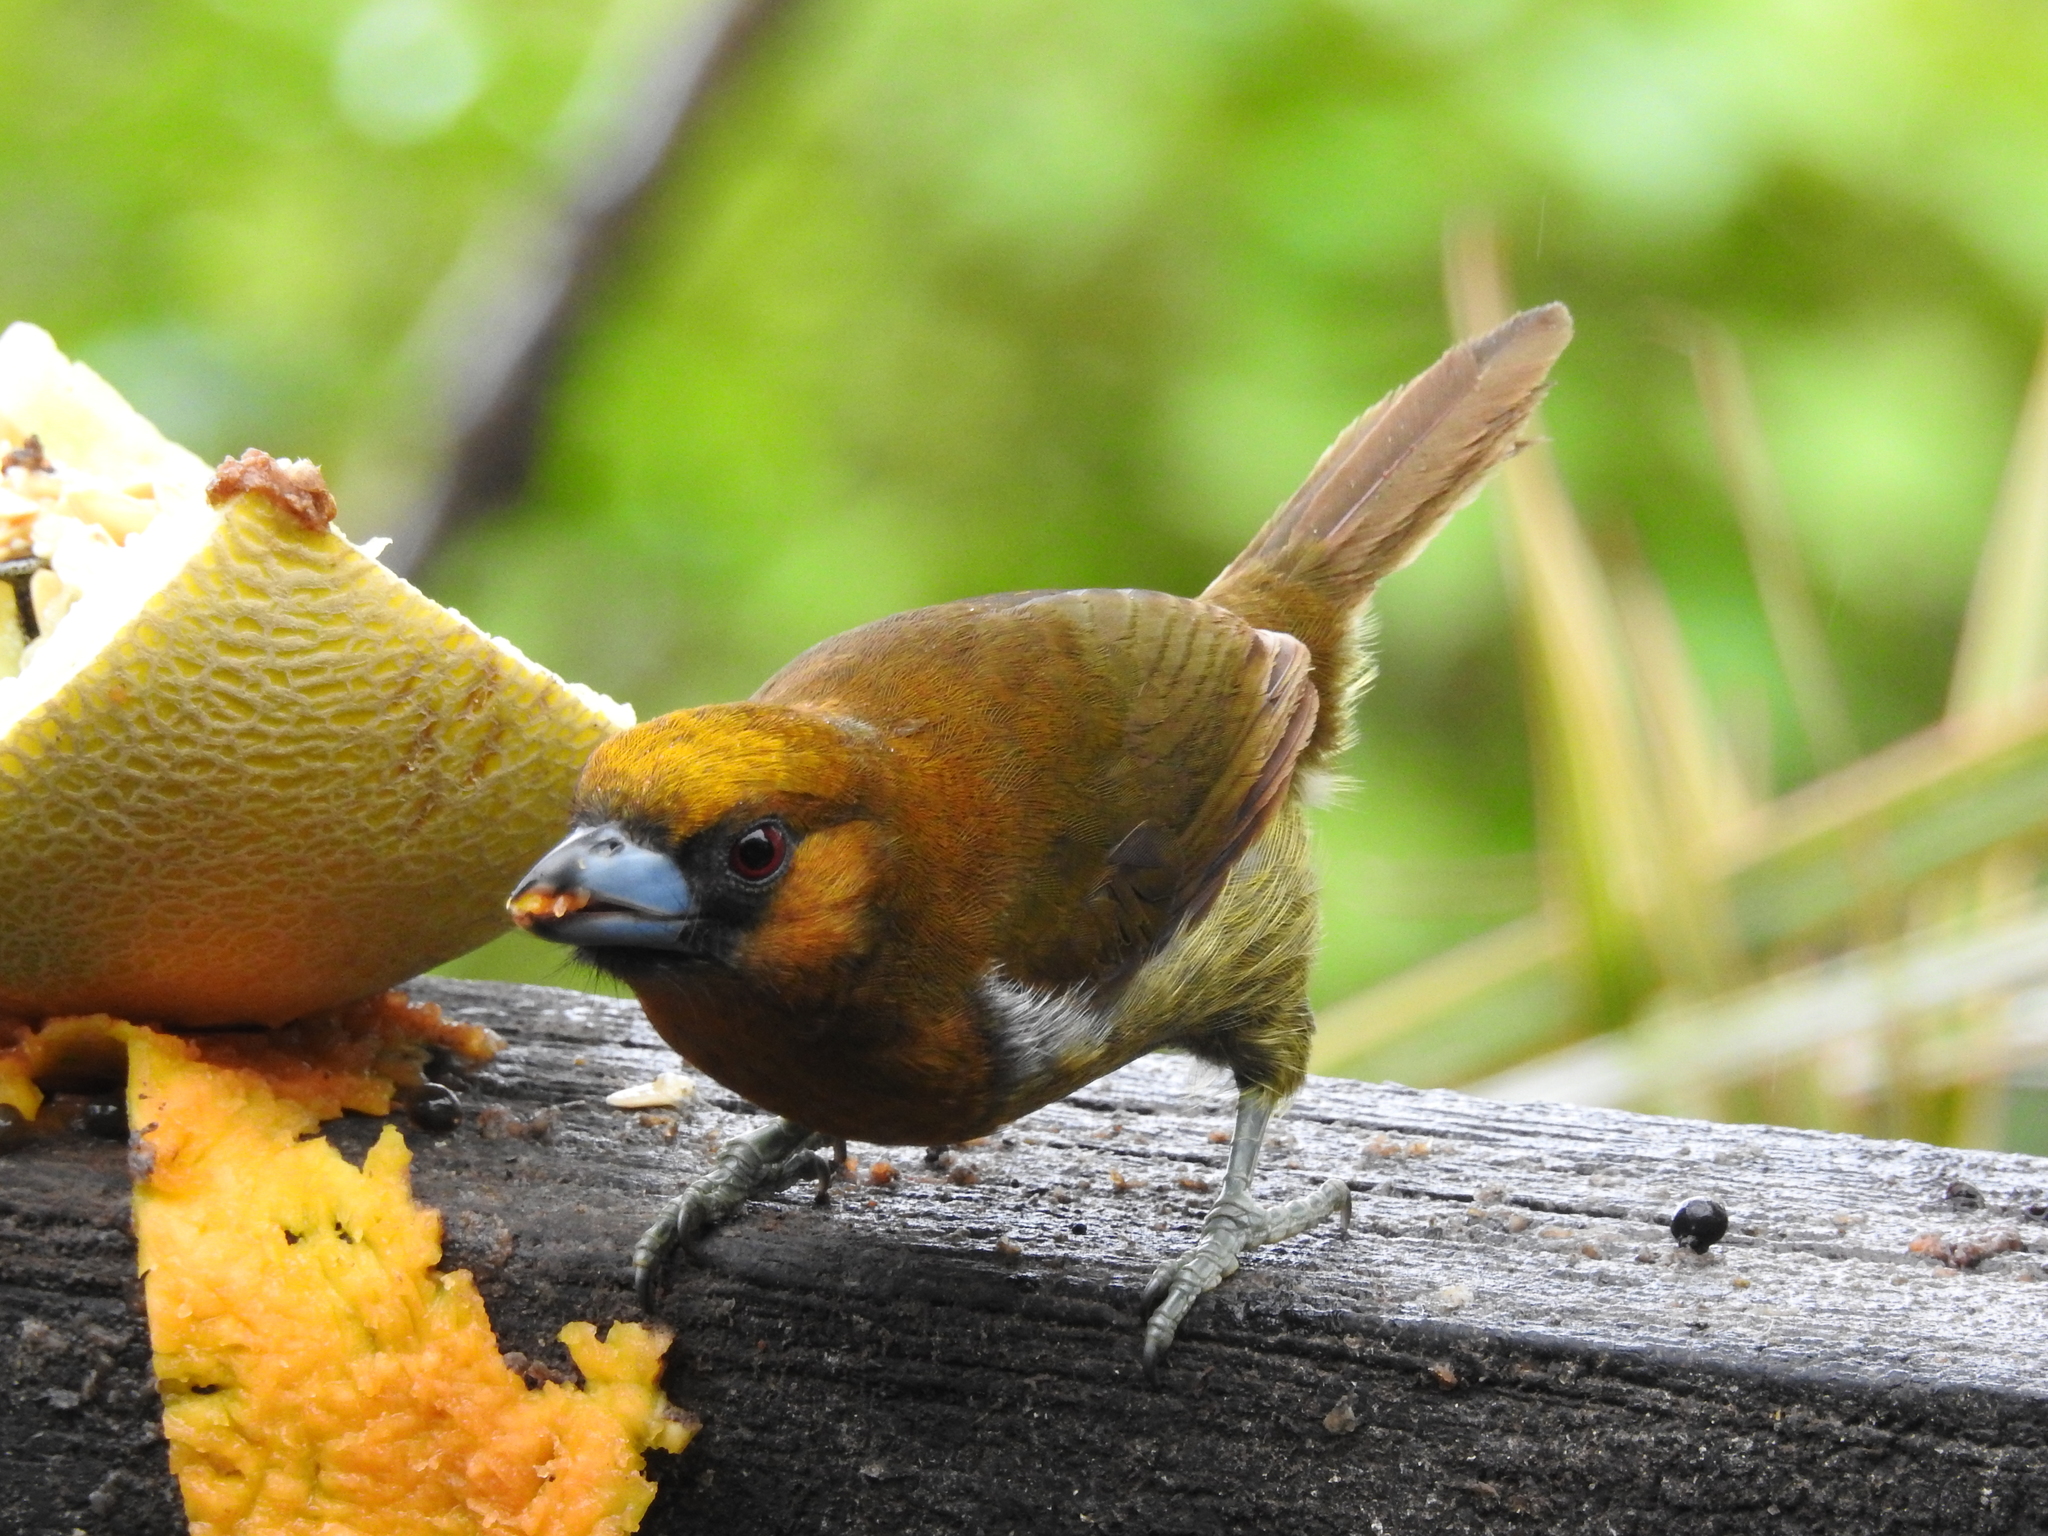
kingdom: Animalia
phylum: Chordata
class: Aves
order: Piciformes
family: Semnornithidae
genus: Semnornis
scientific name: Semnornis frantzii
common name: Prong-billed barbet
